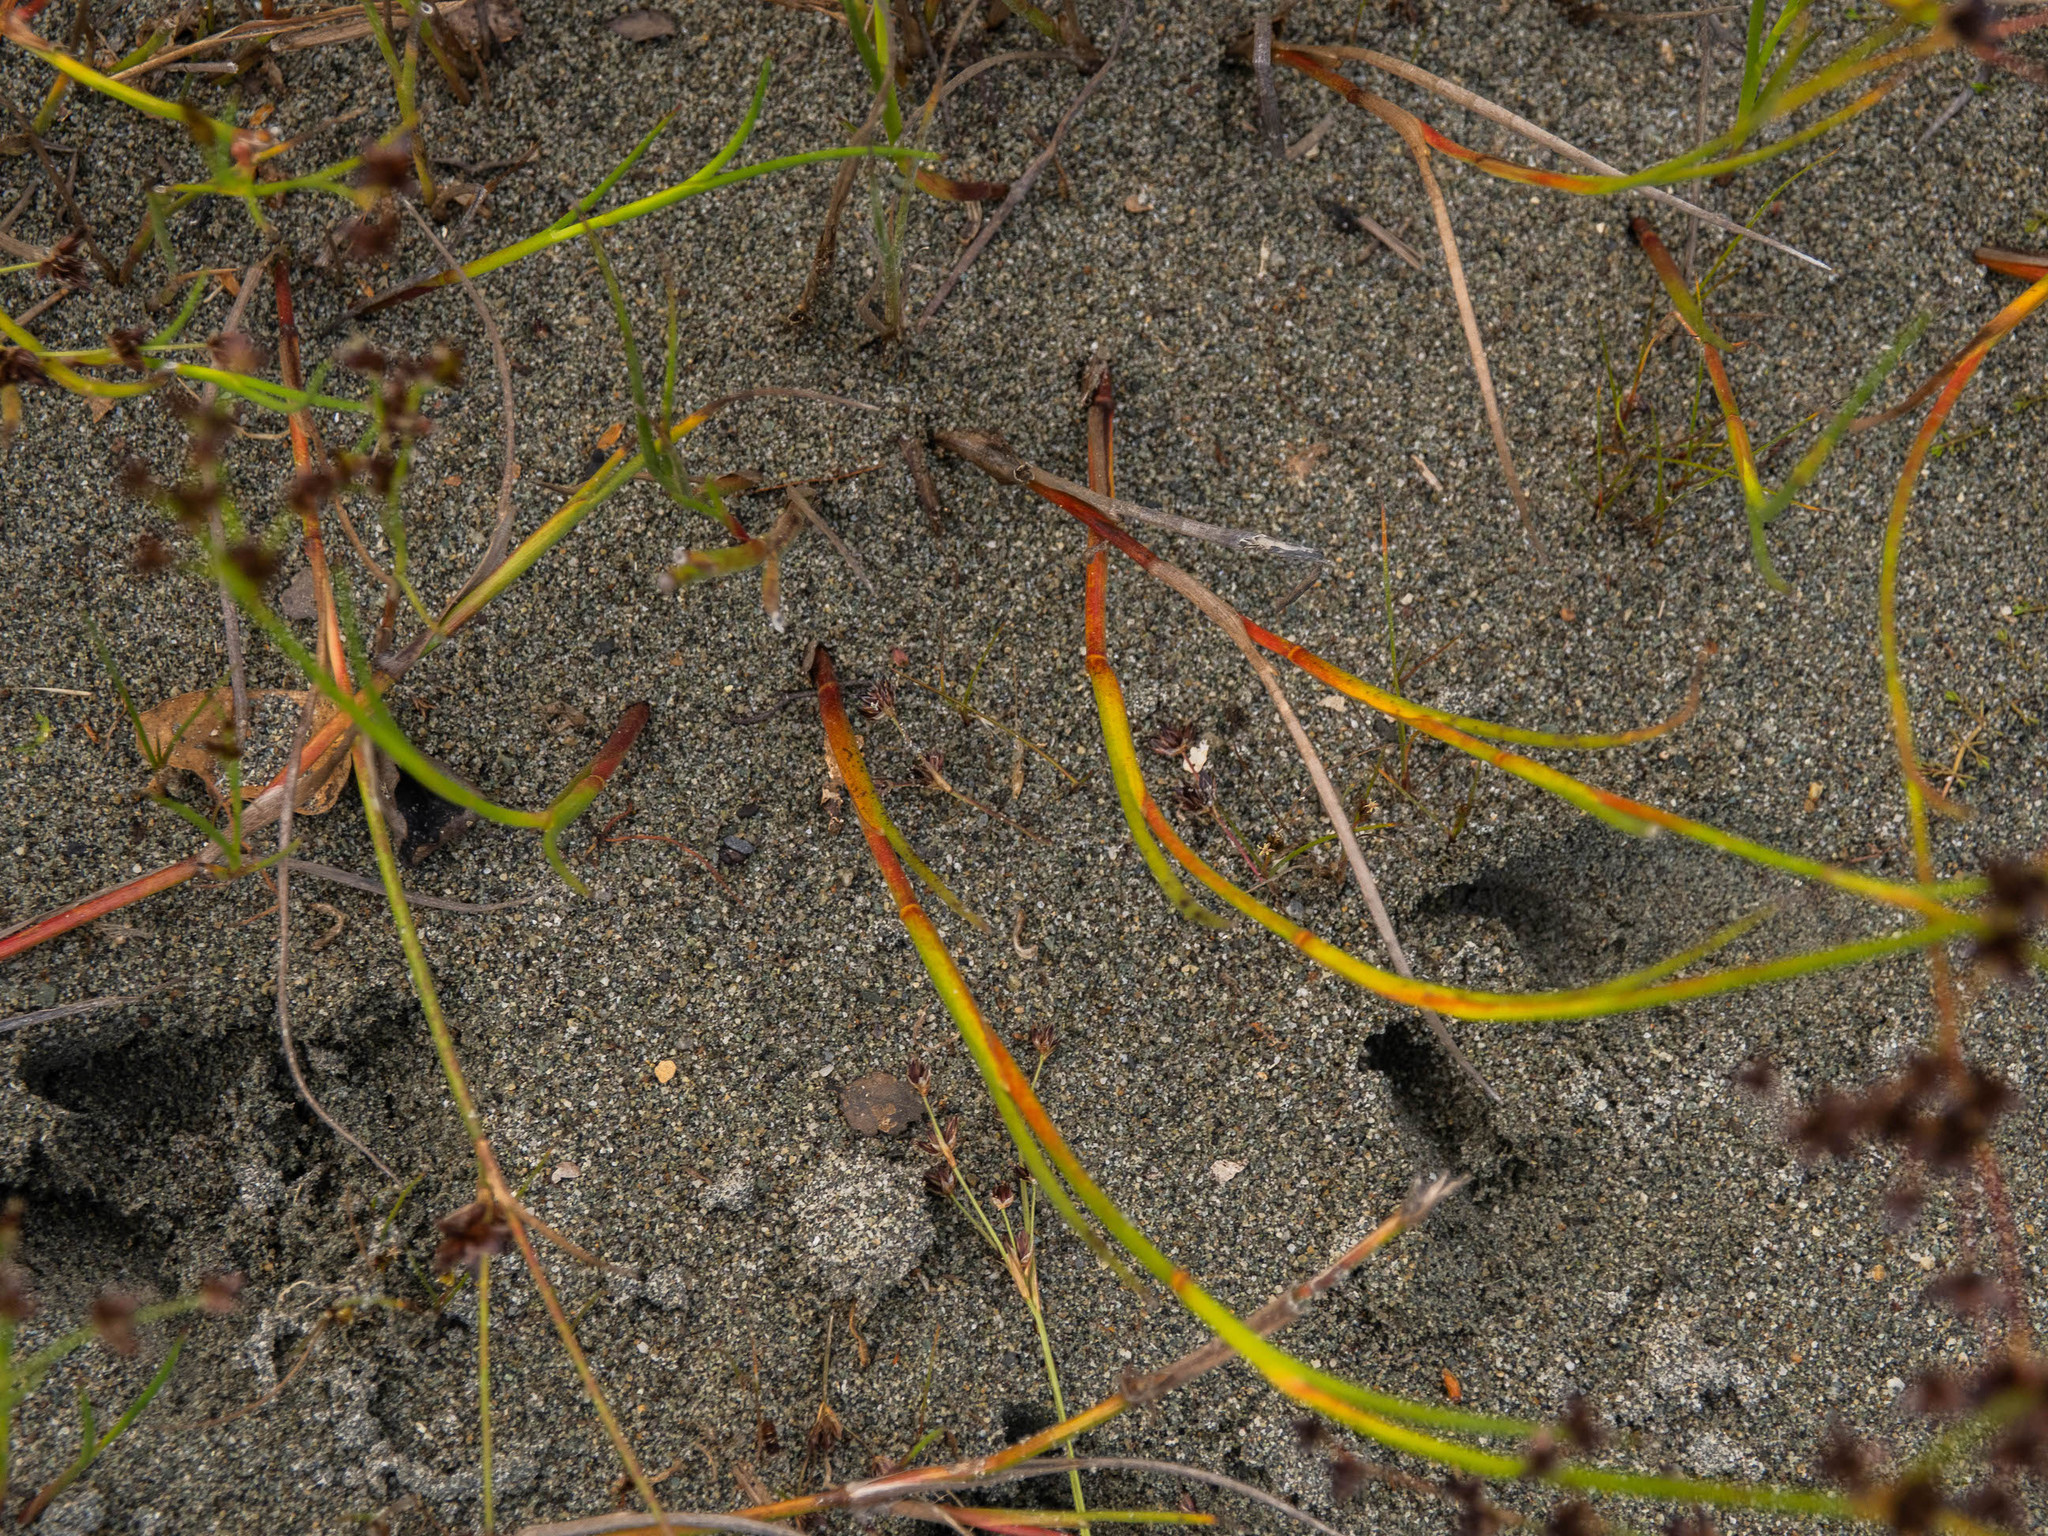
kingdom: Plantae
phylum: Tracheophyta
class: Liliopsida
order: Poales
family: Juncaceae
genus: Juncus
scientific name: Juncus articulatus
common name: Jointed rush
